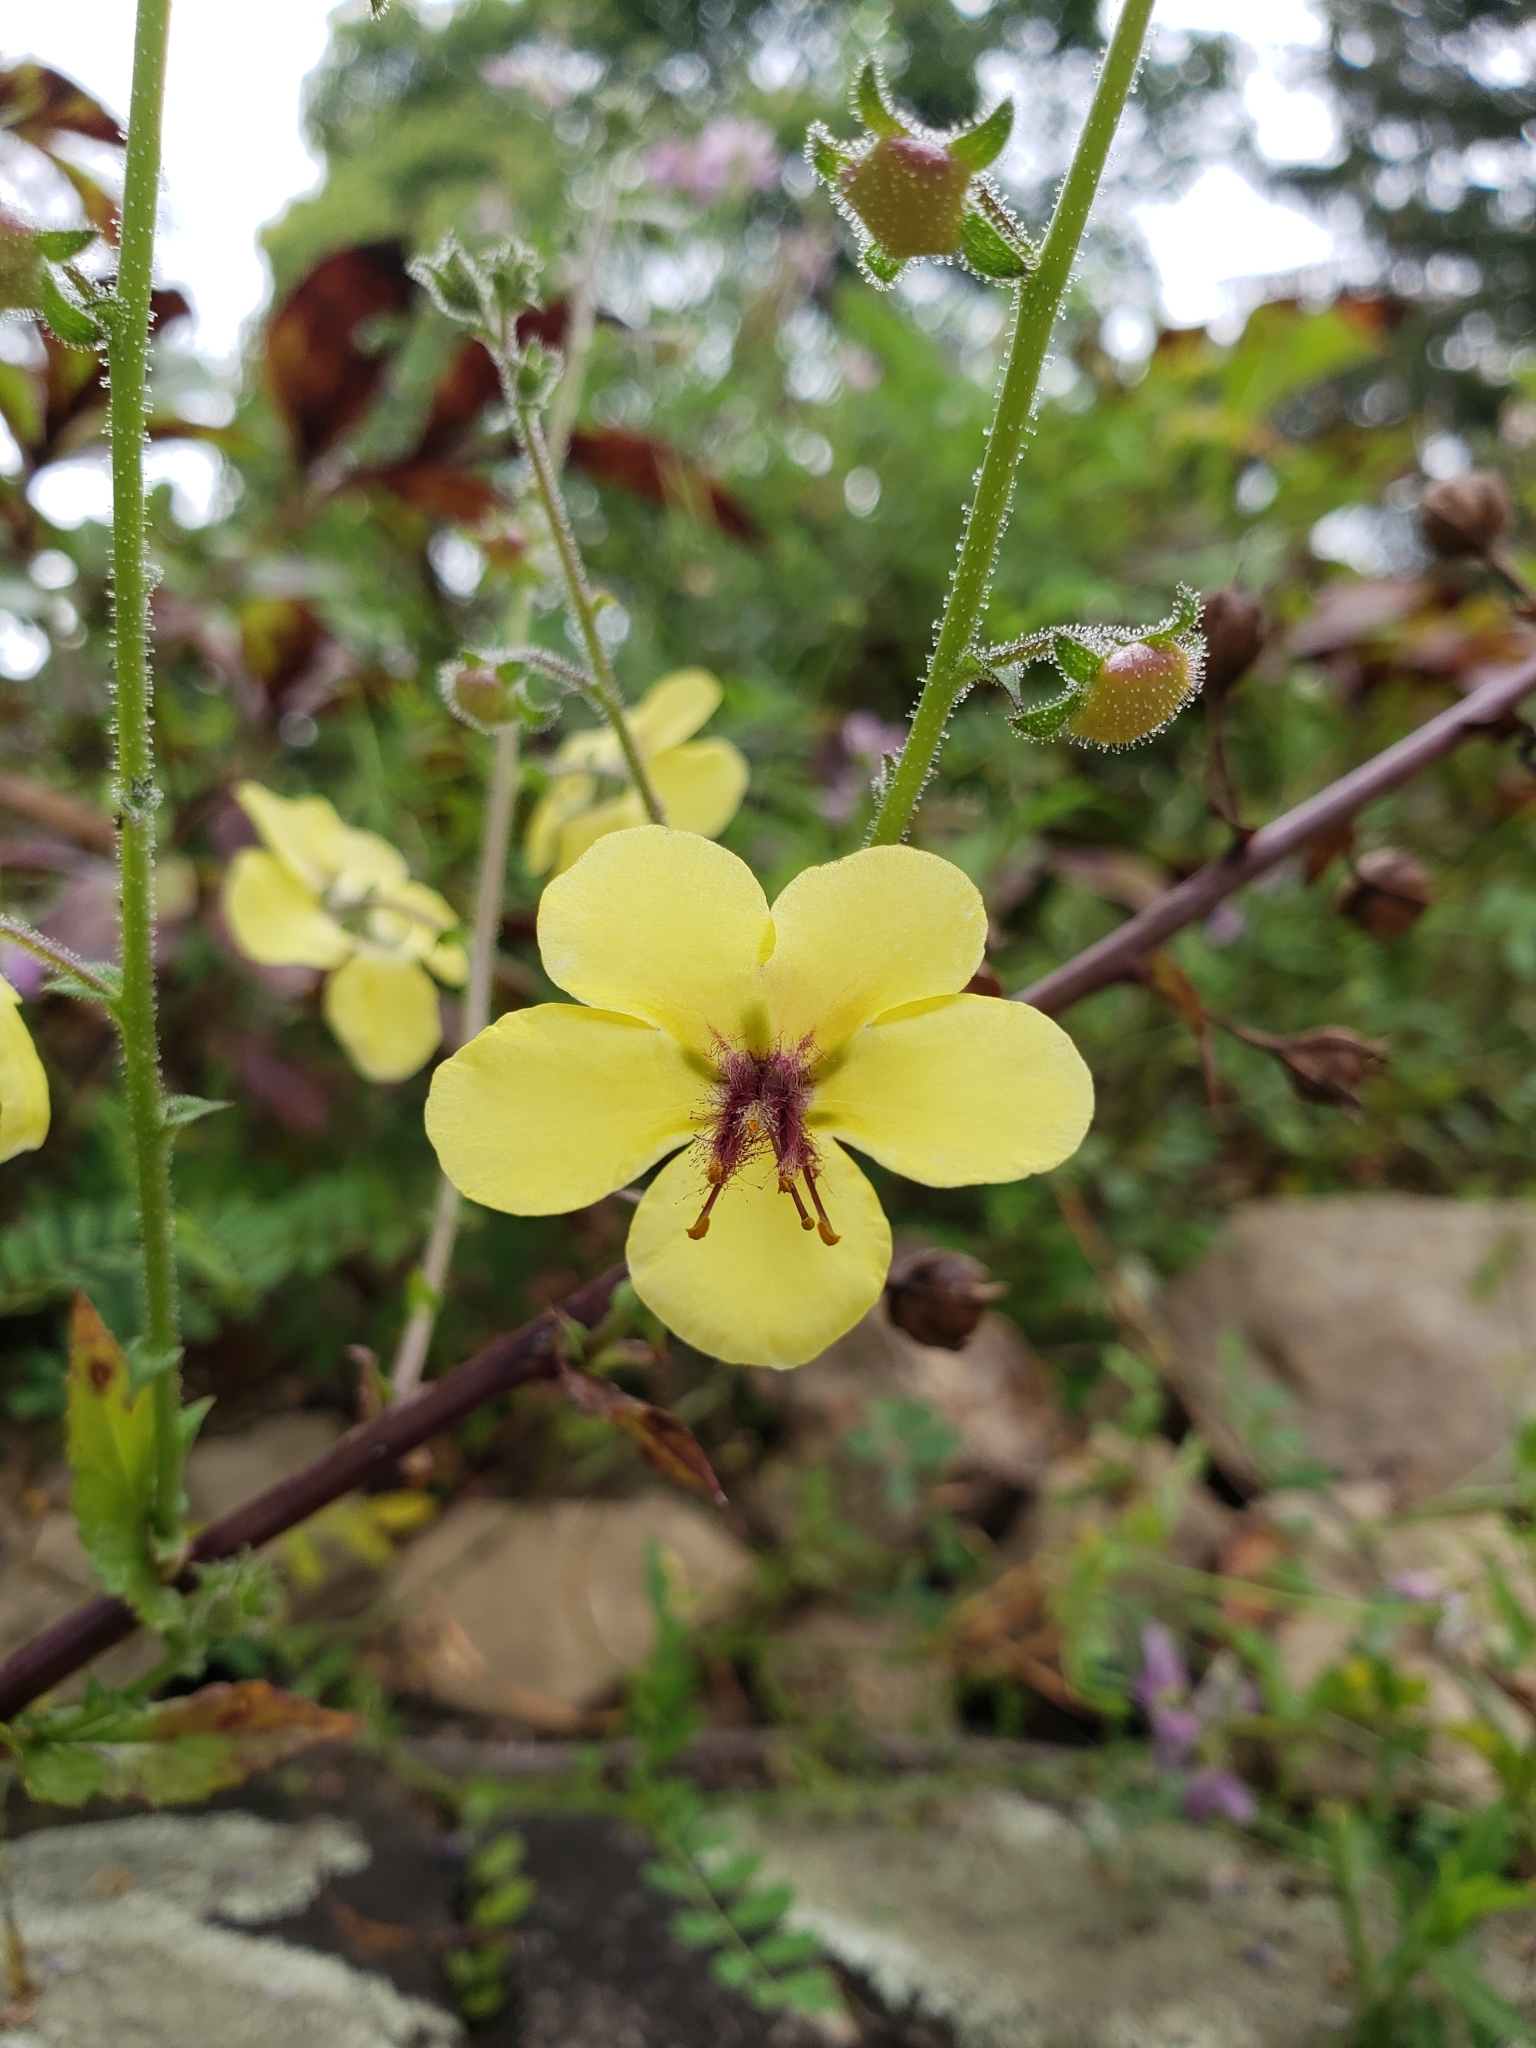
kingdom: Plantae
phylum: Tracheophyta
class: Magnoliopsida
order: Lamiales
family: Scrophulariaceae
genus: Verbascum
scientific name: Verbascum blattaria
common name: Moth mullein
